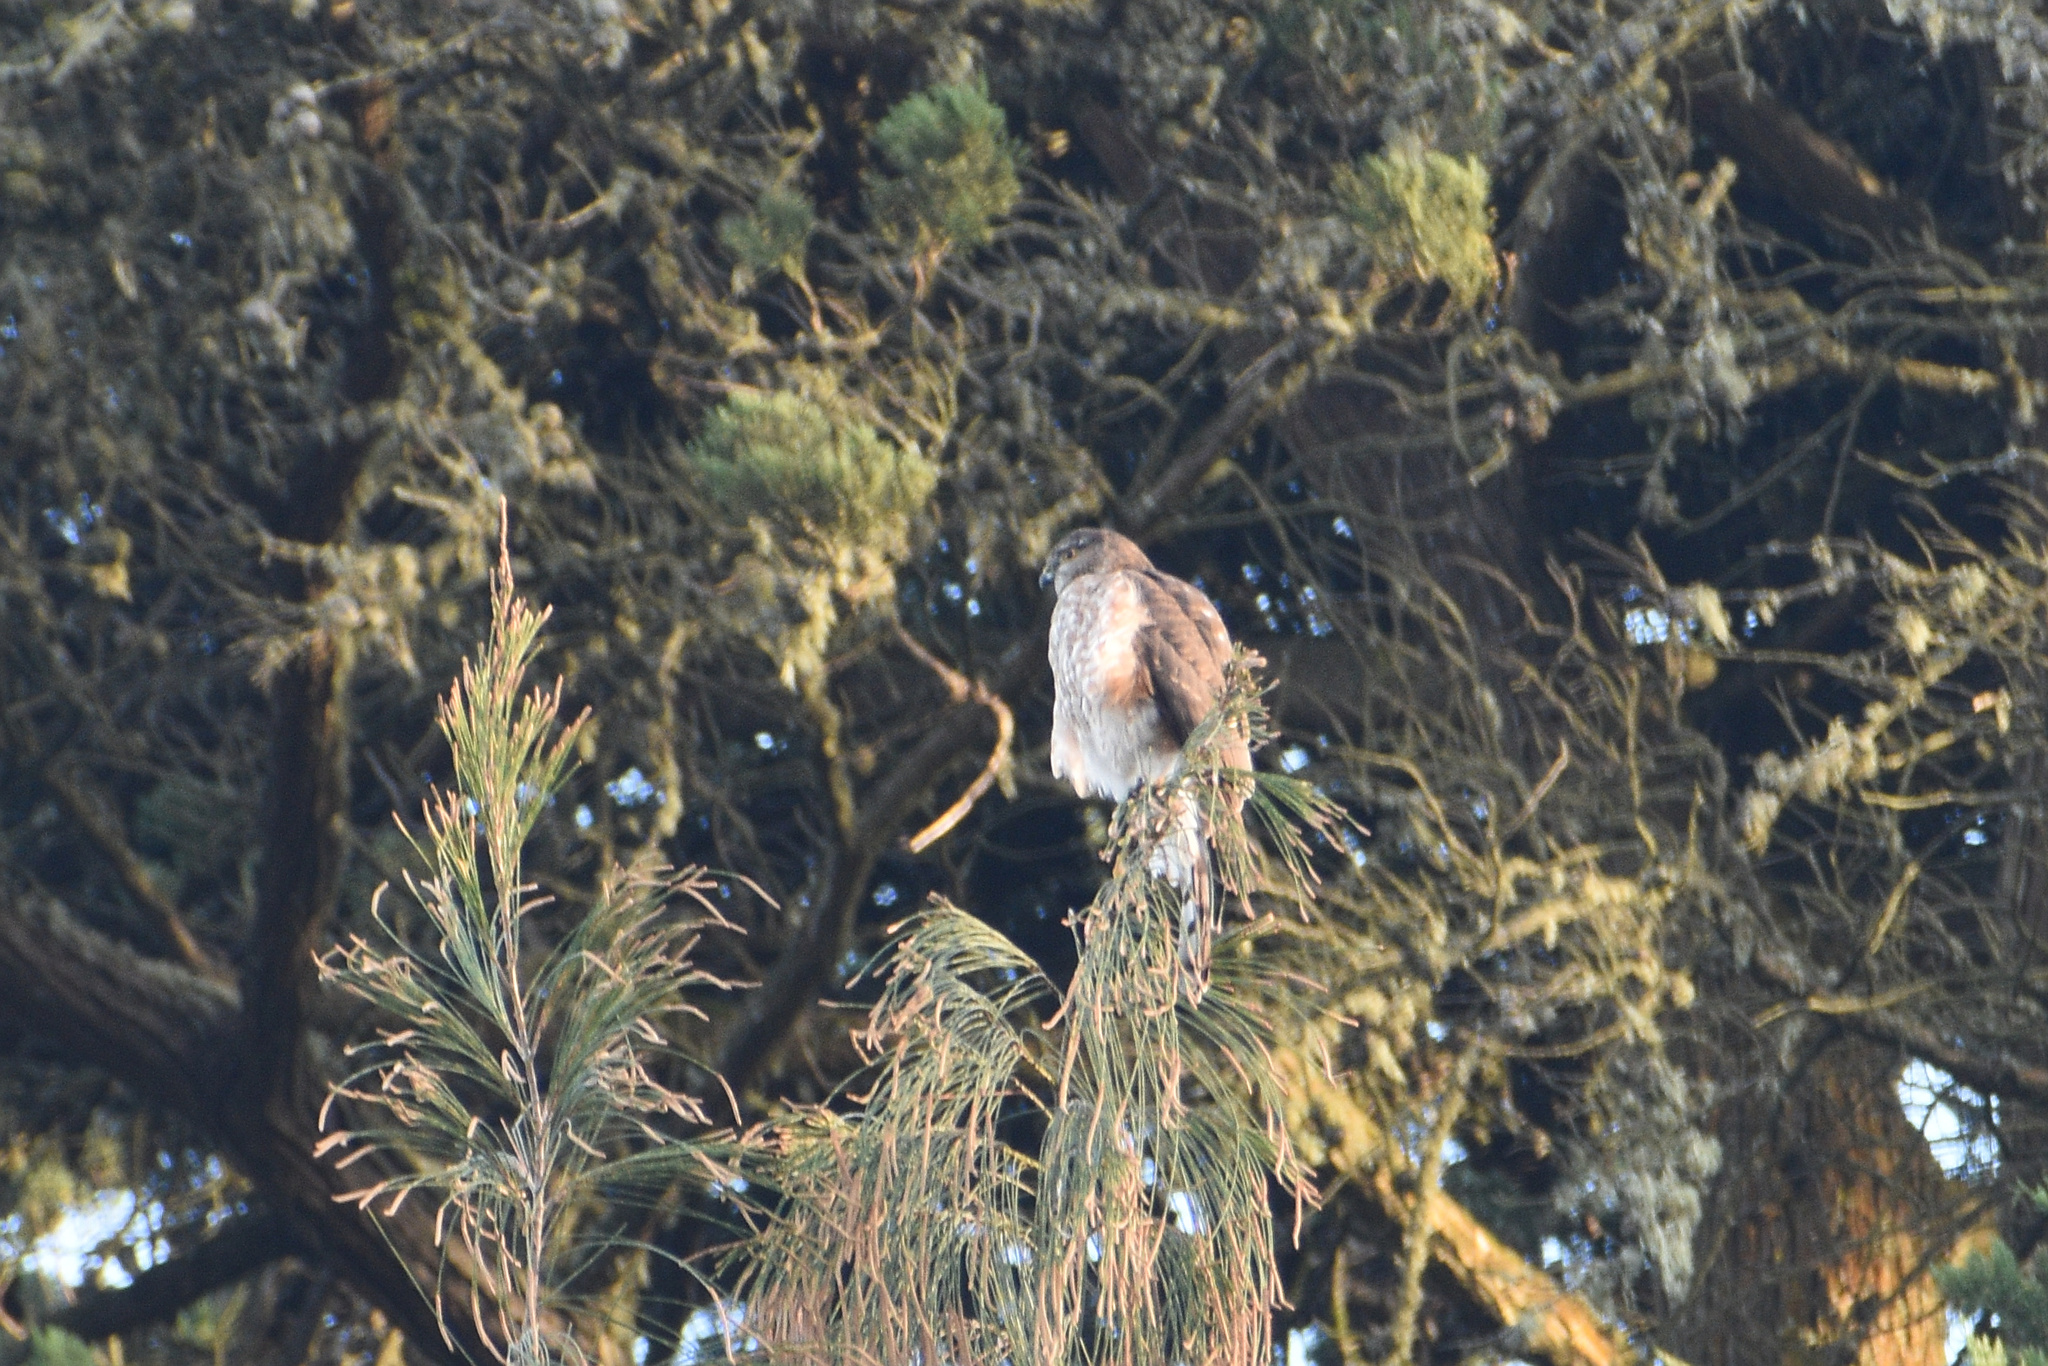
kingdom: Animalia
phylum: Chordata
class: Aves
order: Accipitriformes
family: Accipitridae
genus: Accipiter
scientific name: Accipiter striatus
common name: Sharp-shinned hawk
